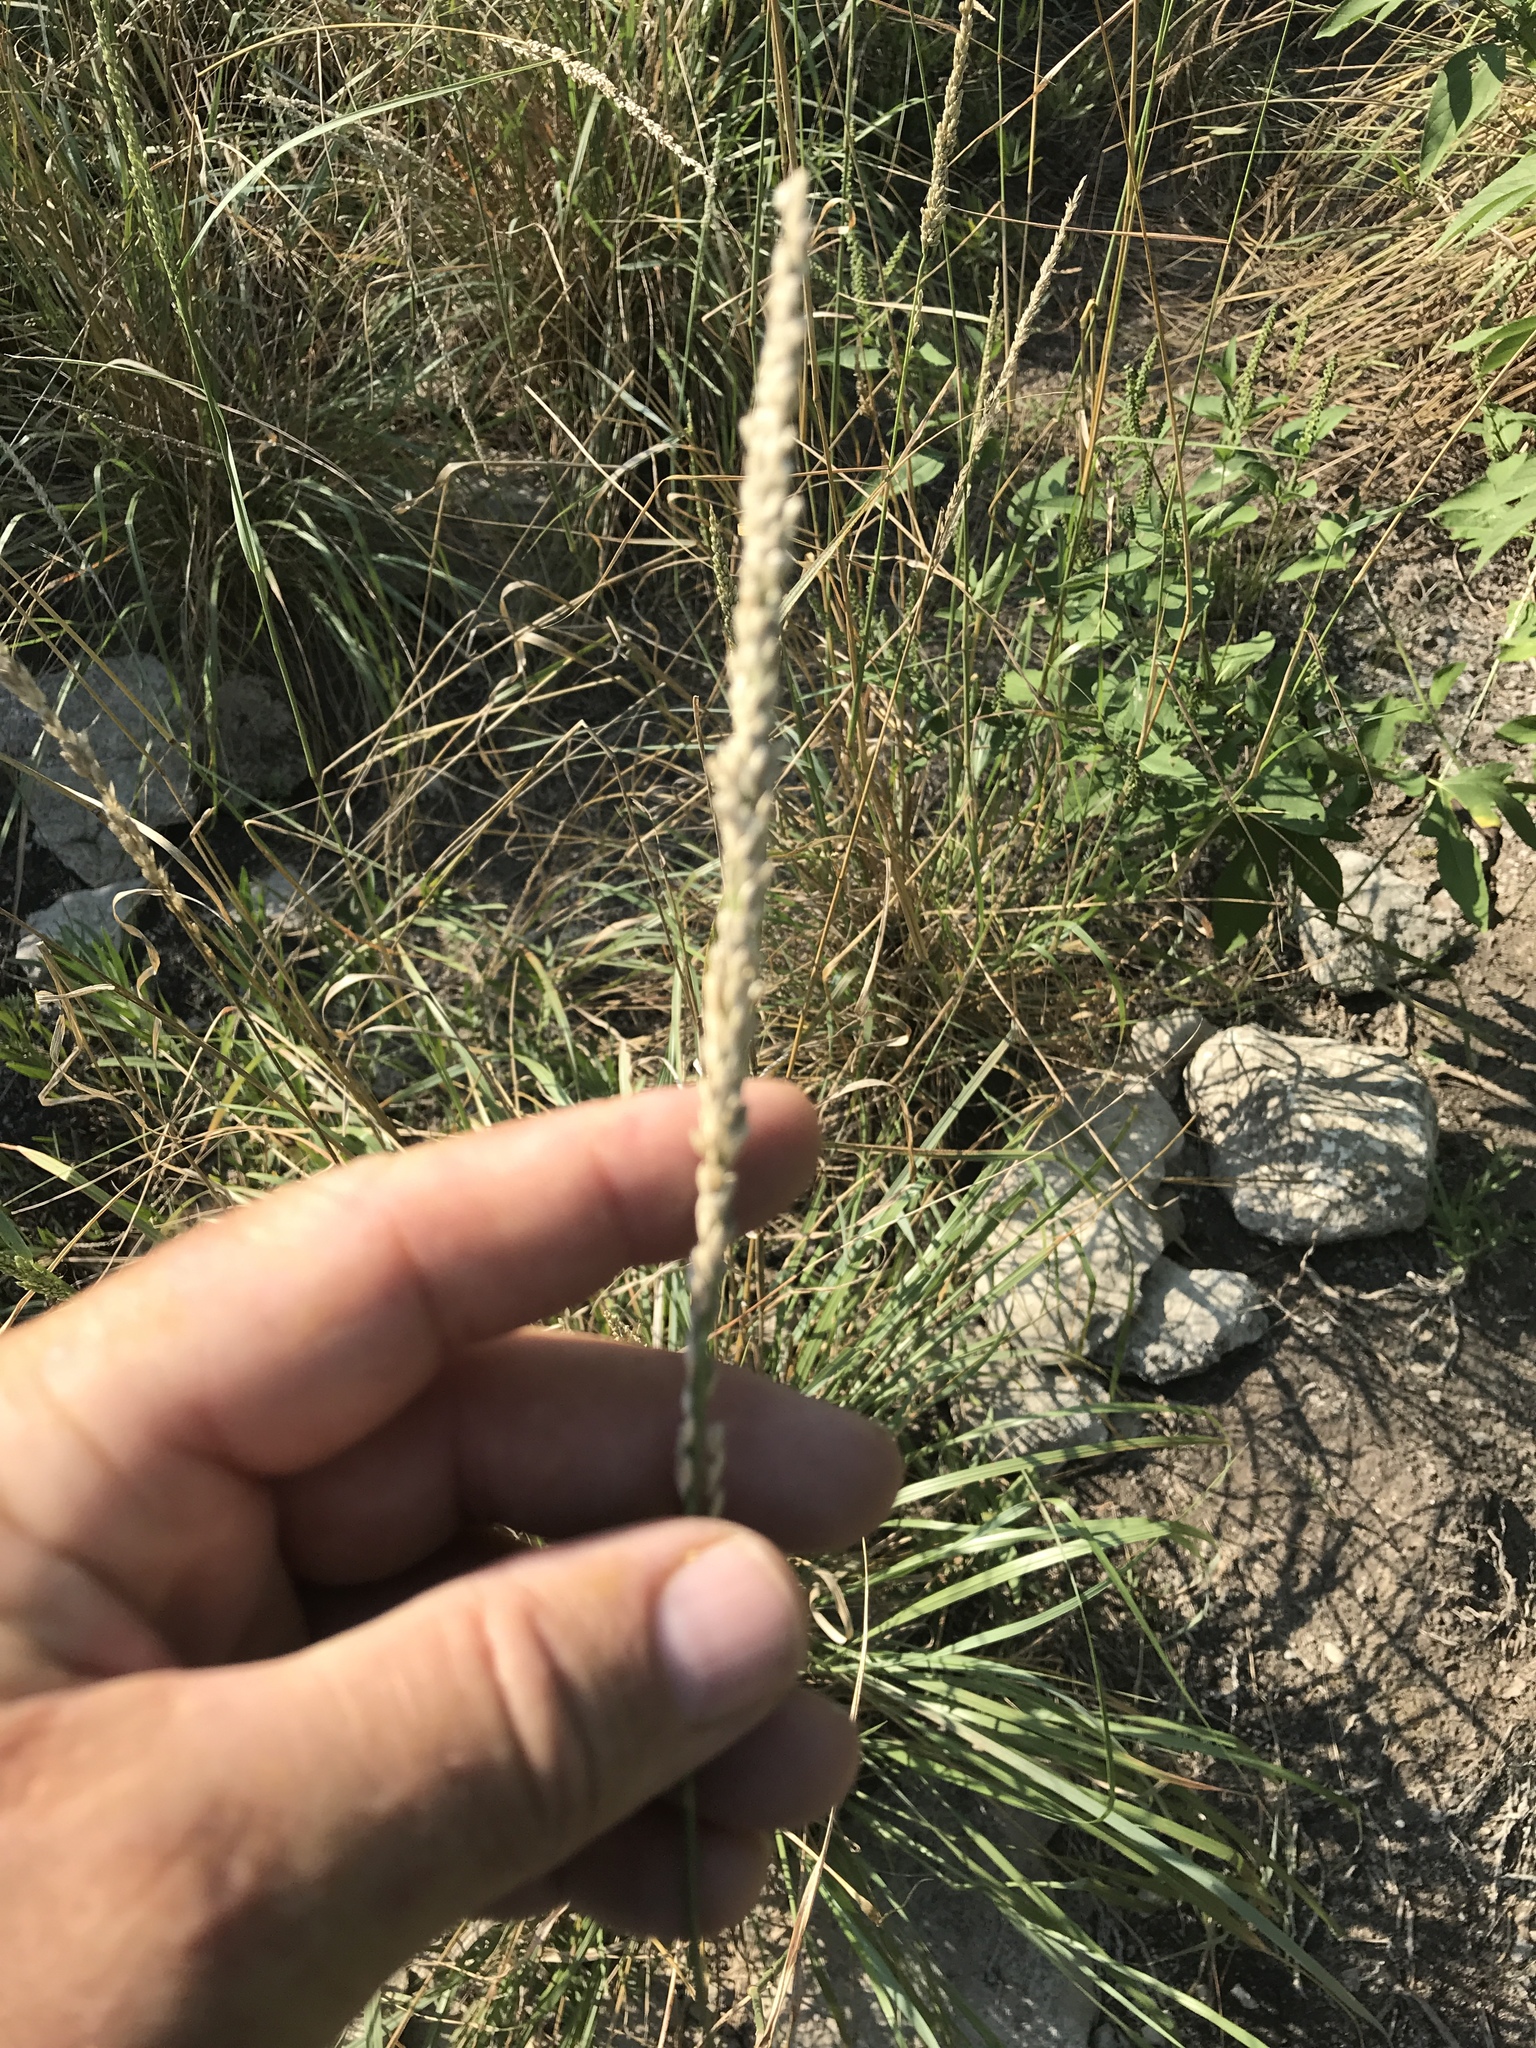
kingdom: Plantae
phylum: Tracheophyta
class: Liliopsida
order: Poales
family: Poaceae
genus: Tridens
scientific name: Tridens albescens
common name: White tridens
